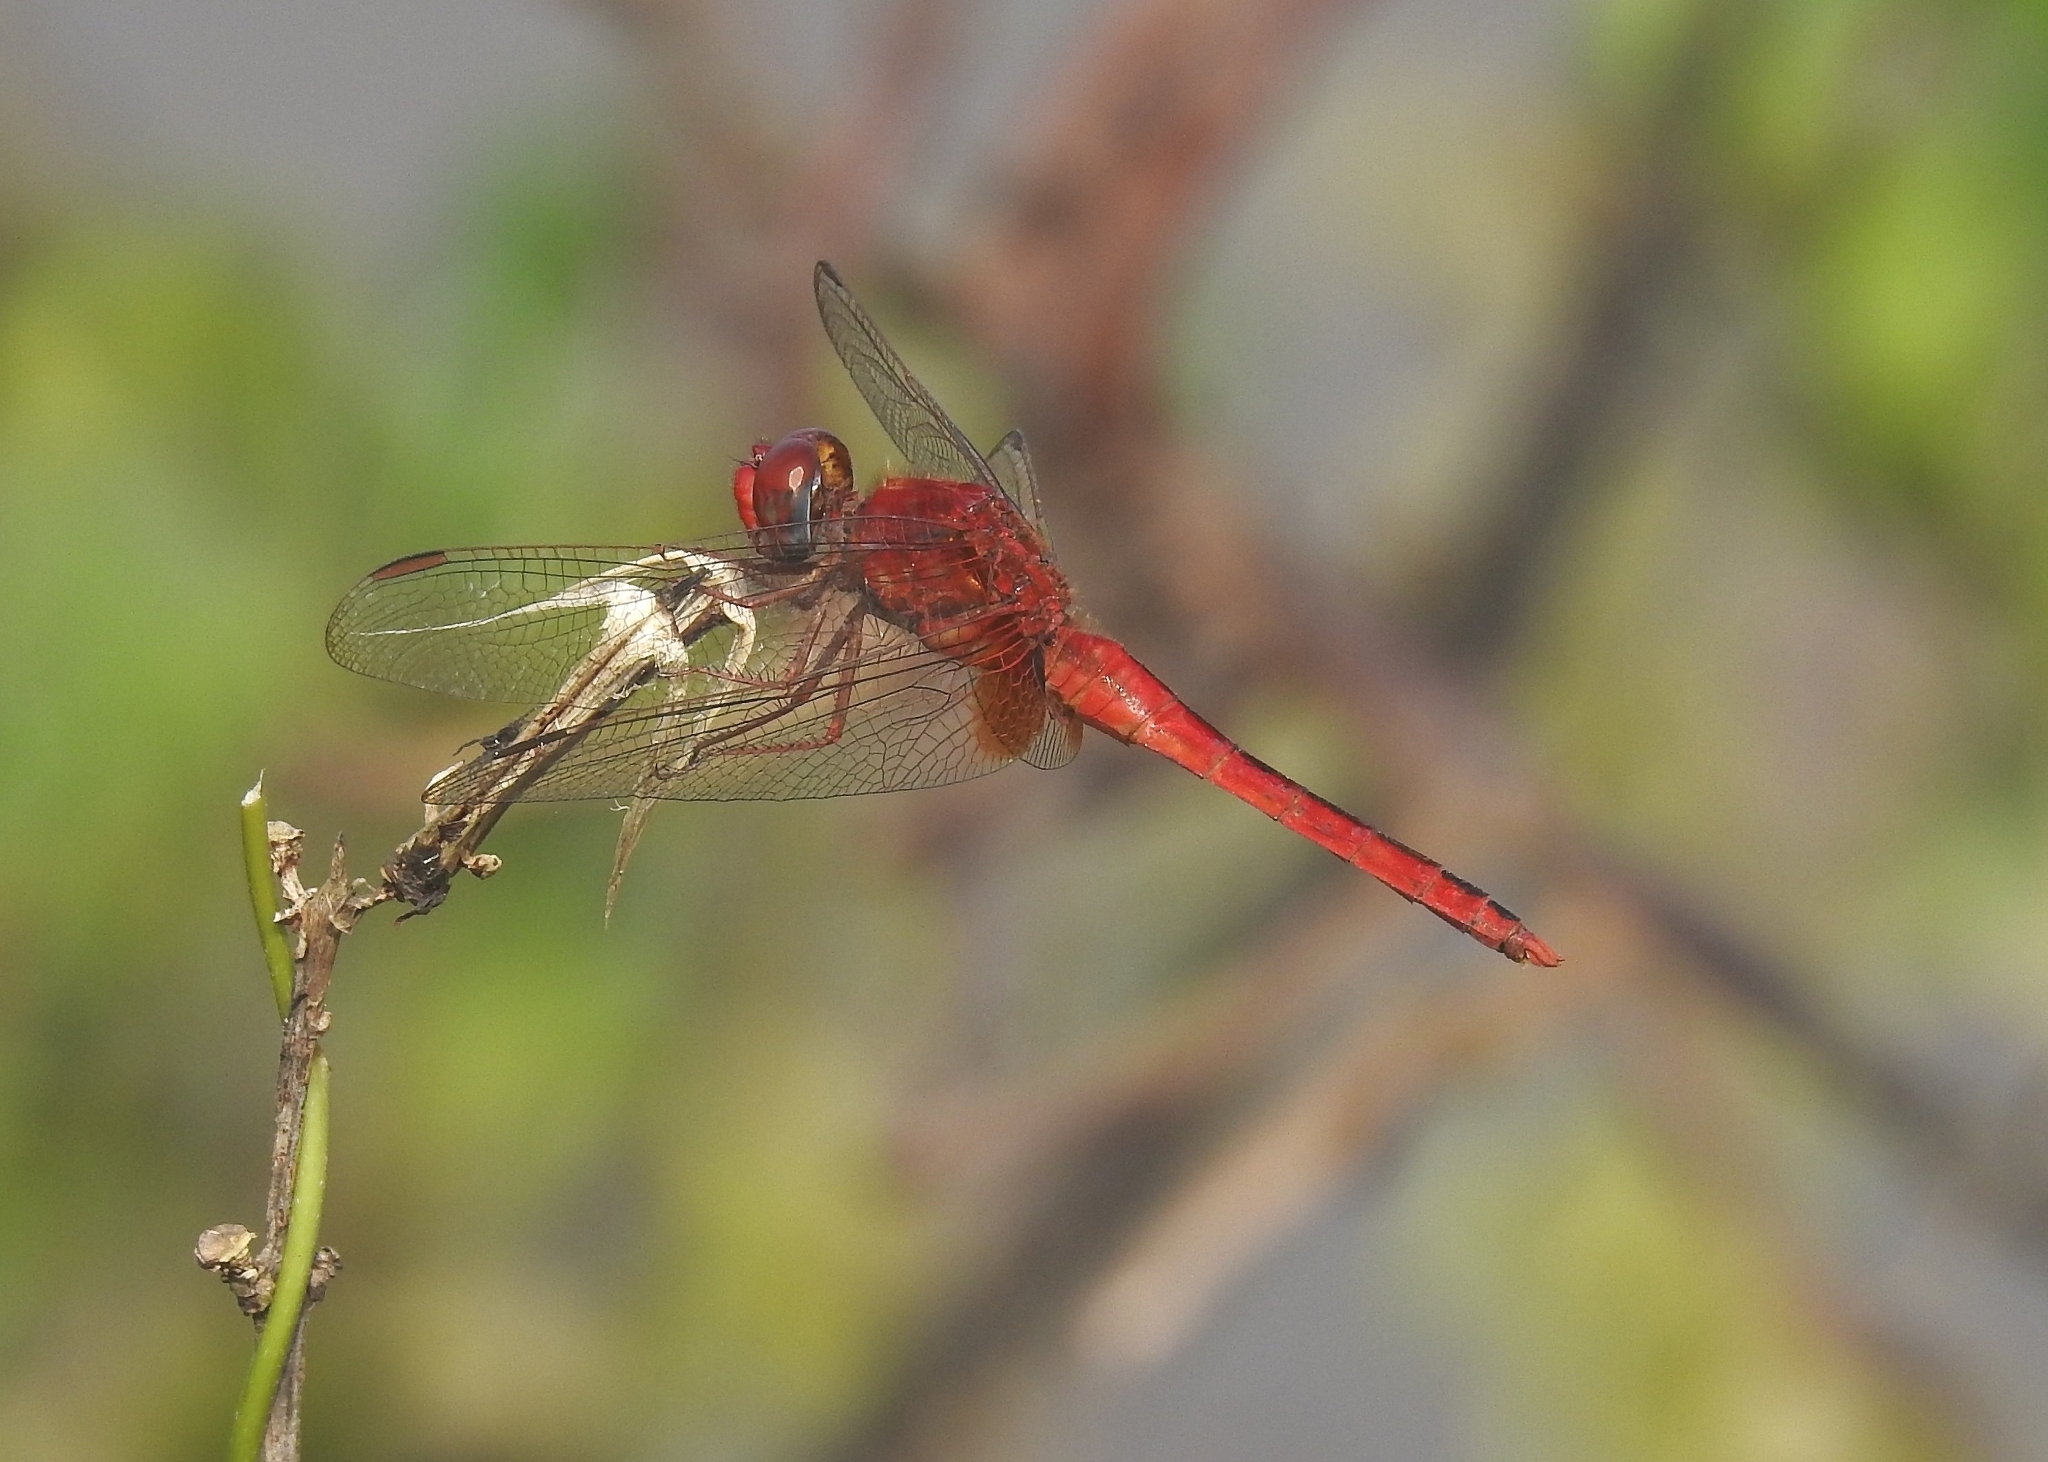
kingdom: Animalia
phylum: Arthropoda
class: Insecta
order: Odonata
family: Libellulidae
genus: Crocothemis
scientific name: Crocothemis servilia
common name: Scarlet skimmer
